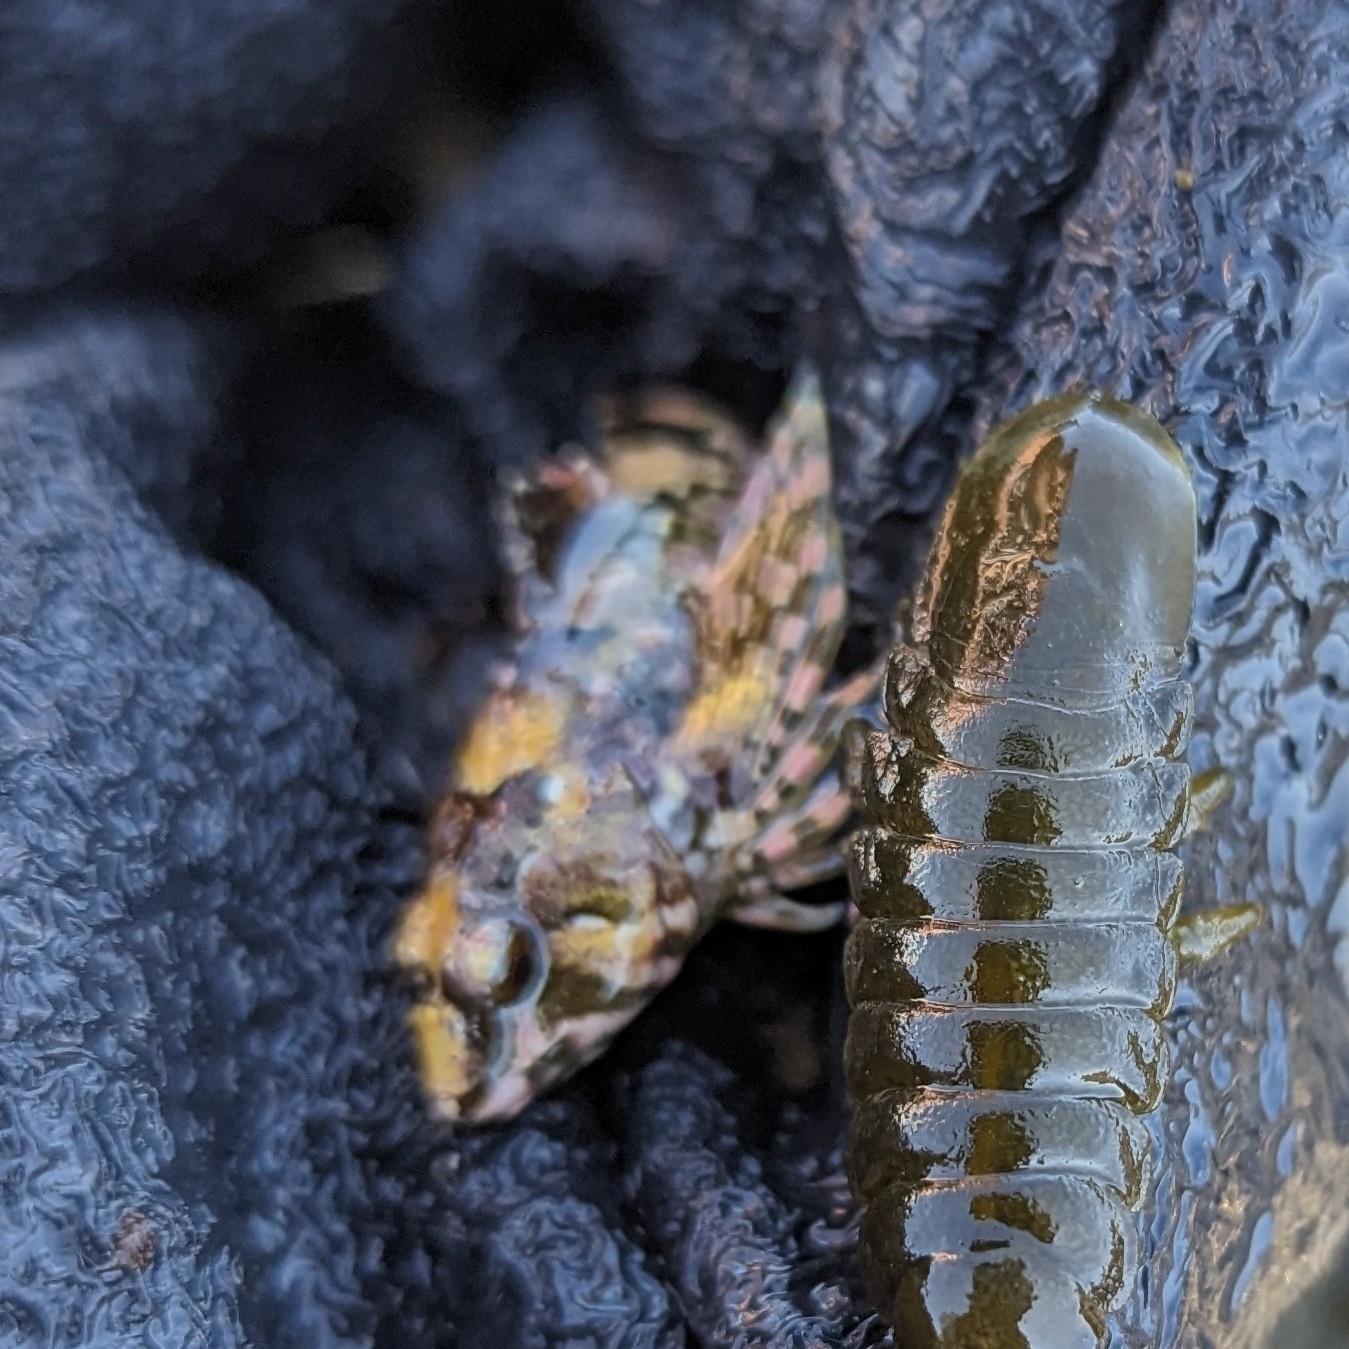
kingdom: Animalia
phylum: Chordata
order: Scorpaeniformes
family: Cottidae
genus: Clinocottus
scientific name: Clinocottus embryum
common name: Calico sculpin
